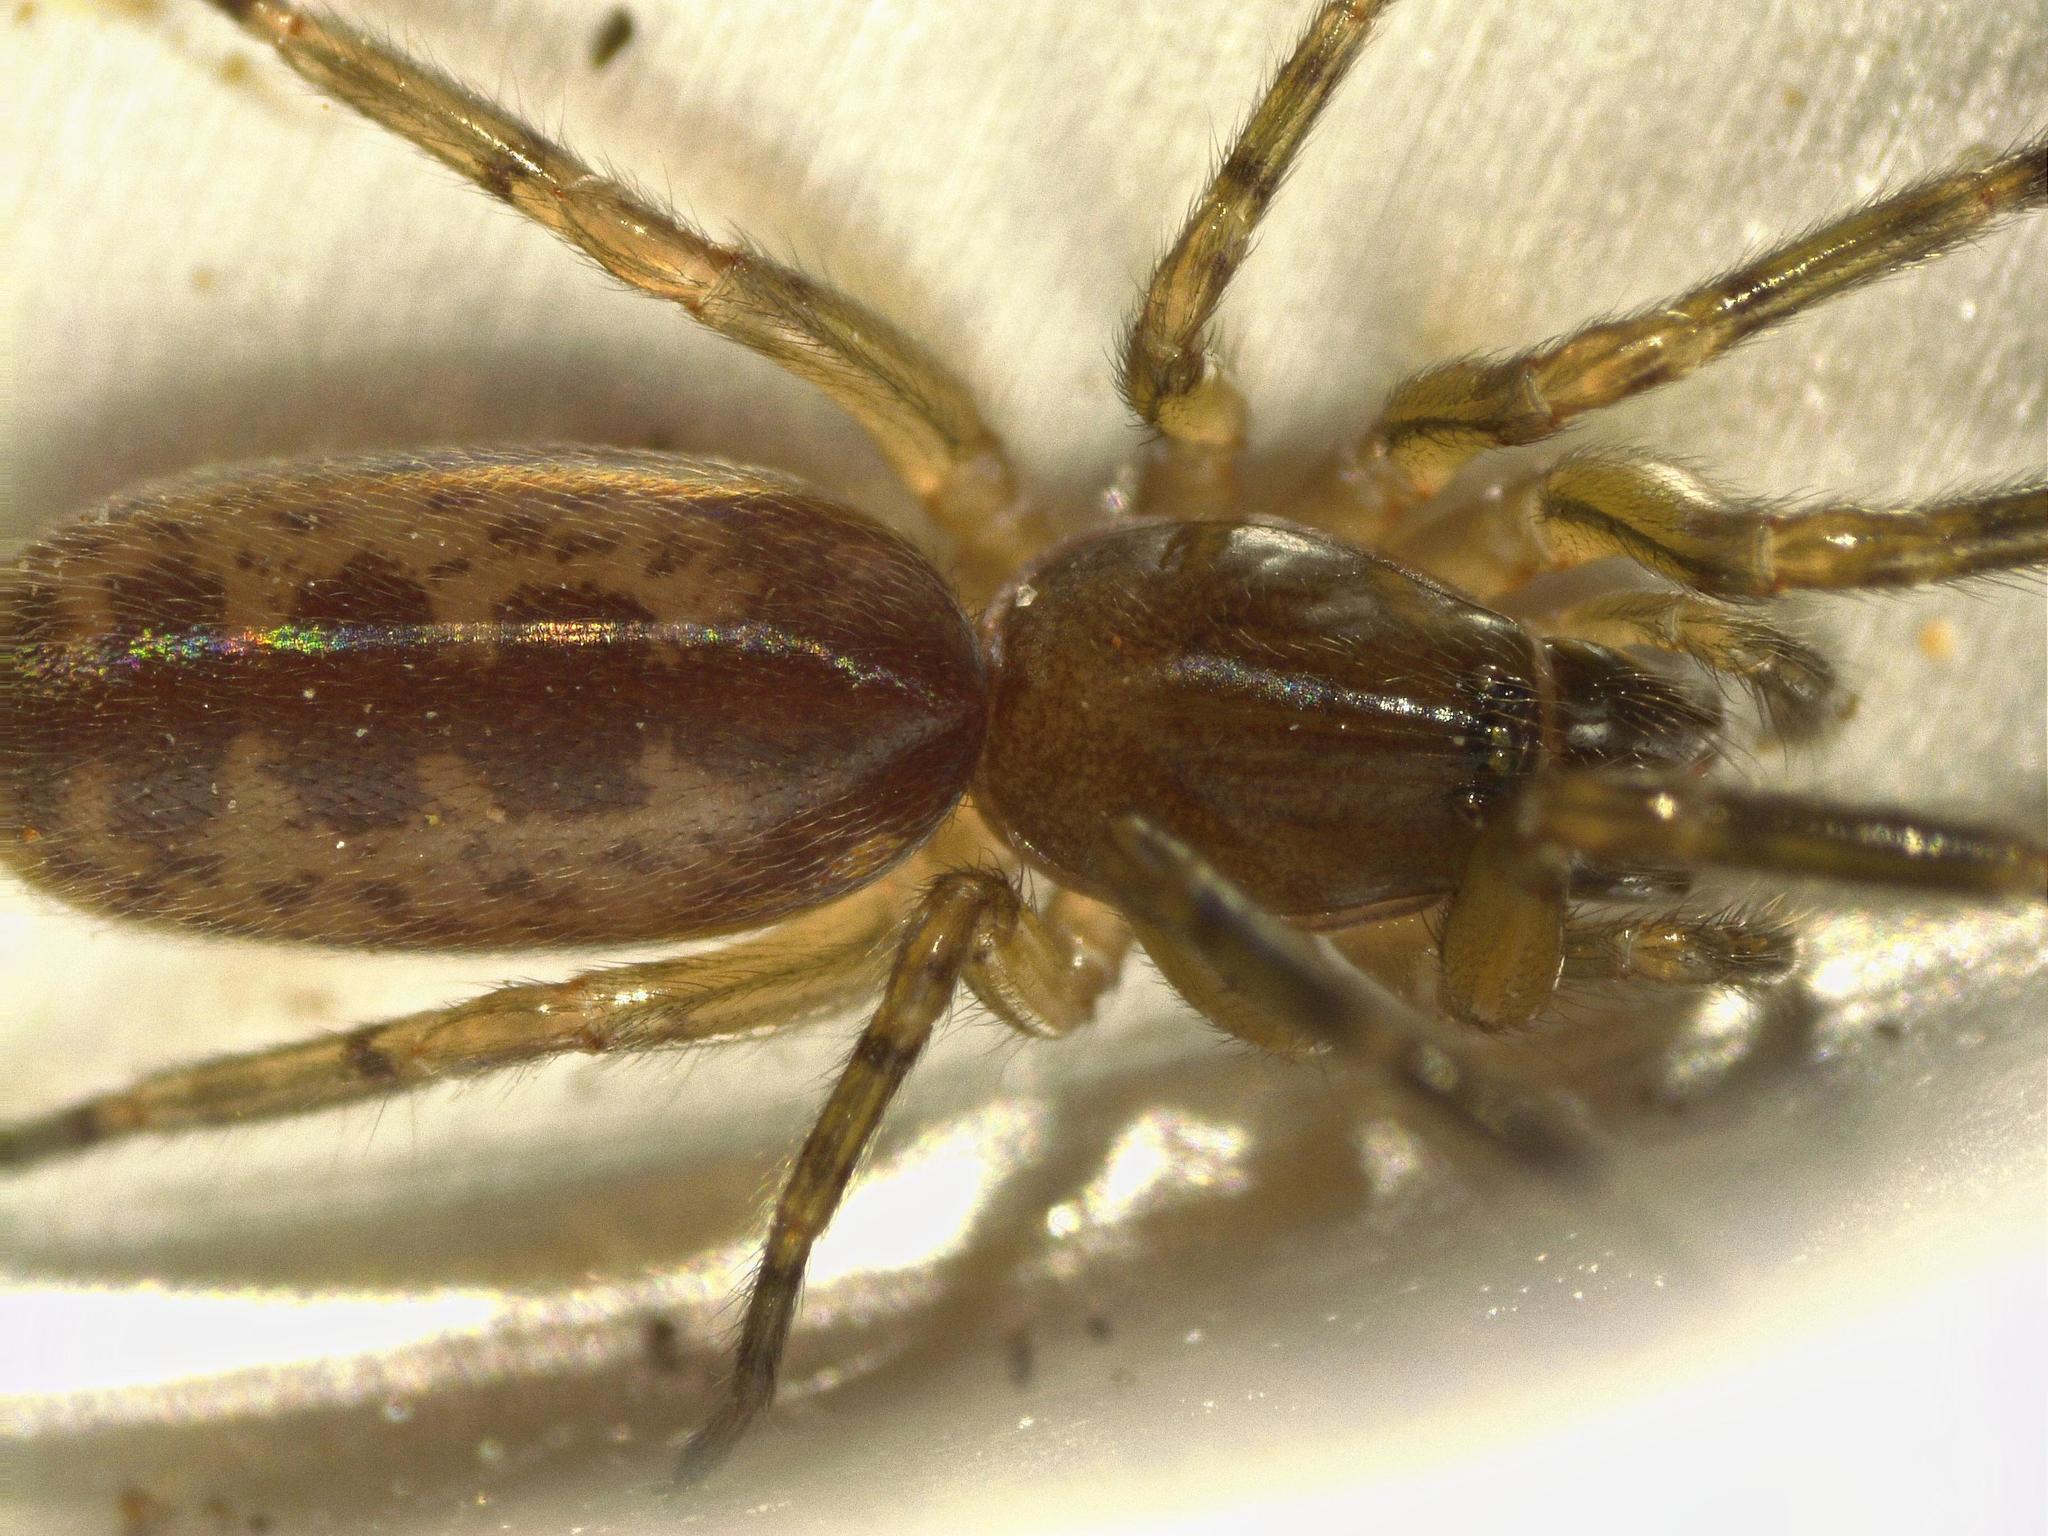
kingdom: Animalia
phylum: Arthropoda
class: Arachnida
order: Araneae
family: Segestriidae
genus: Segestria
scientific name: Segestria senoculata
